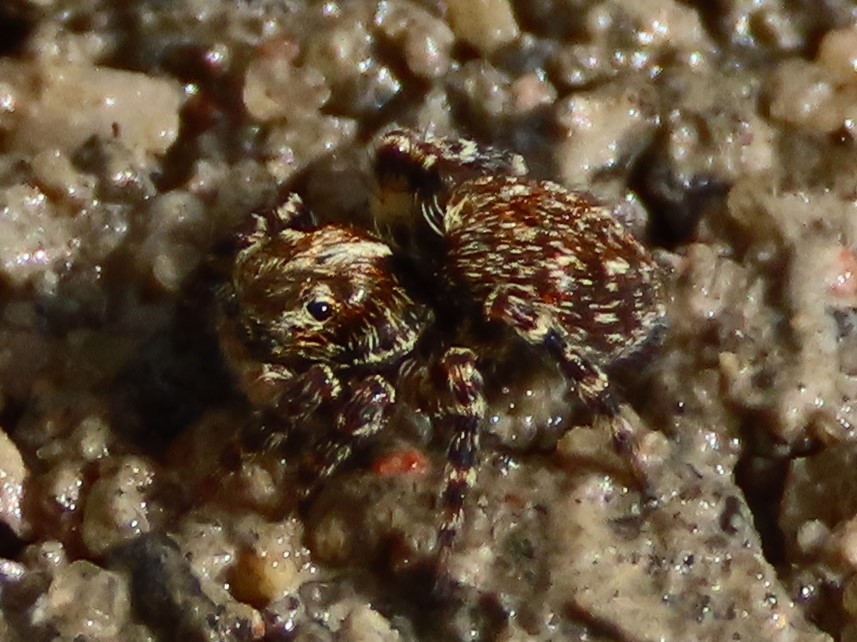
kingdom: Animalia
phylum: Arthropoda
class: Arachnida
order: Araneae
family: Salticidae
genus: Pseudeuophrys
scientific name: Pseudeuophrys erratica
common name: Jumping spider
